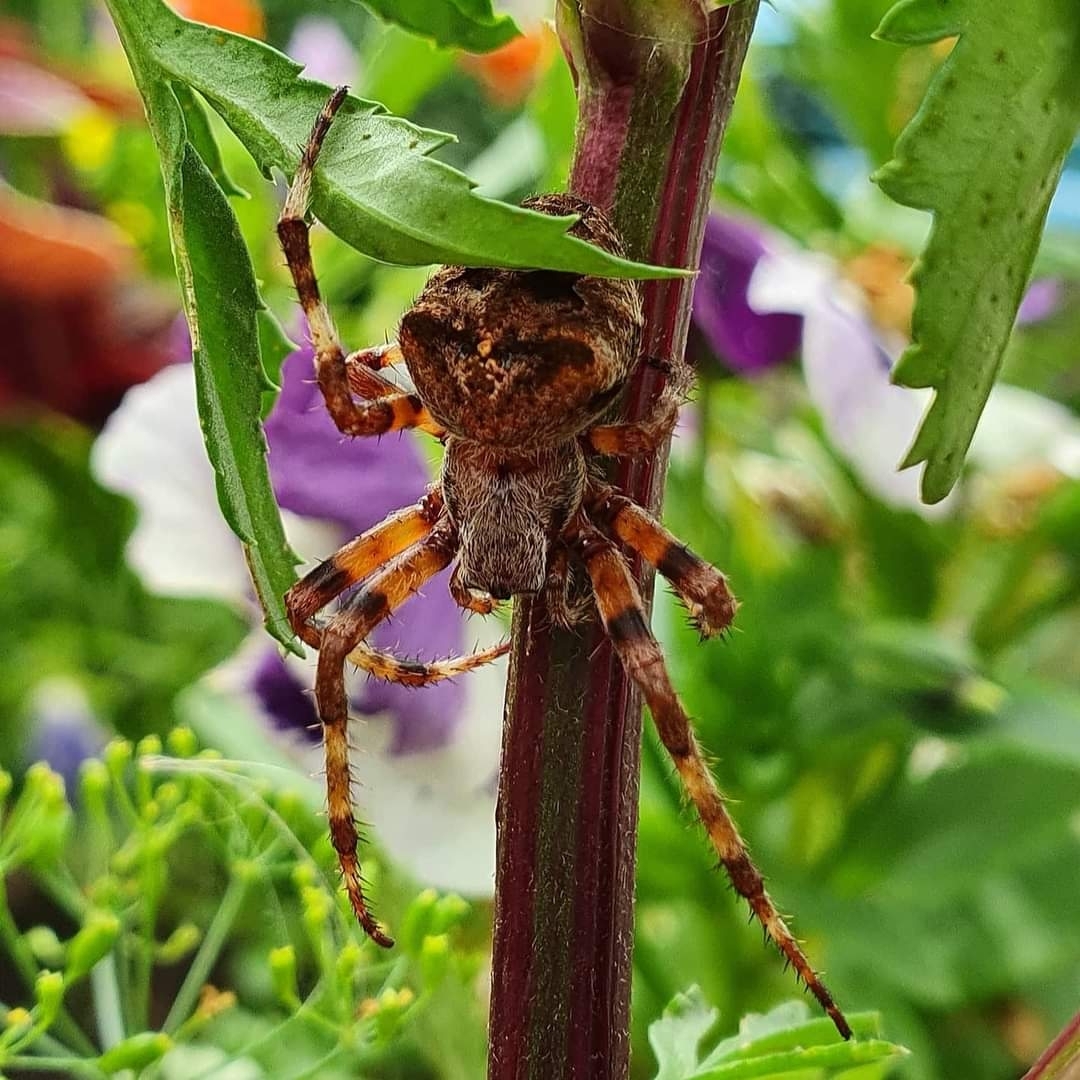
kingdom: Animalia
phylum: Arthropoda
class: Arachnida
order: Araneae
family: Araneidae
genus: Araneus
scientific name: Araneus angulatus
